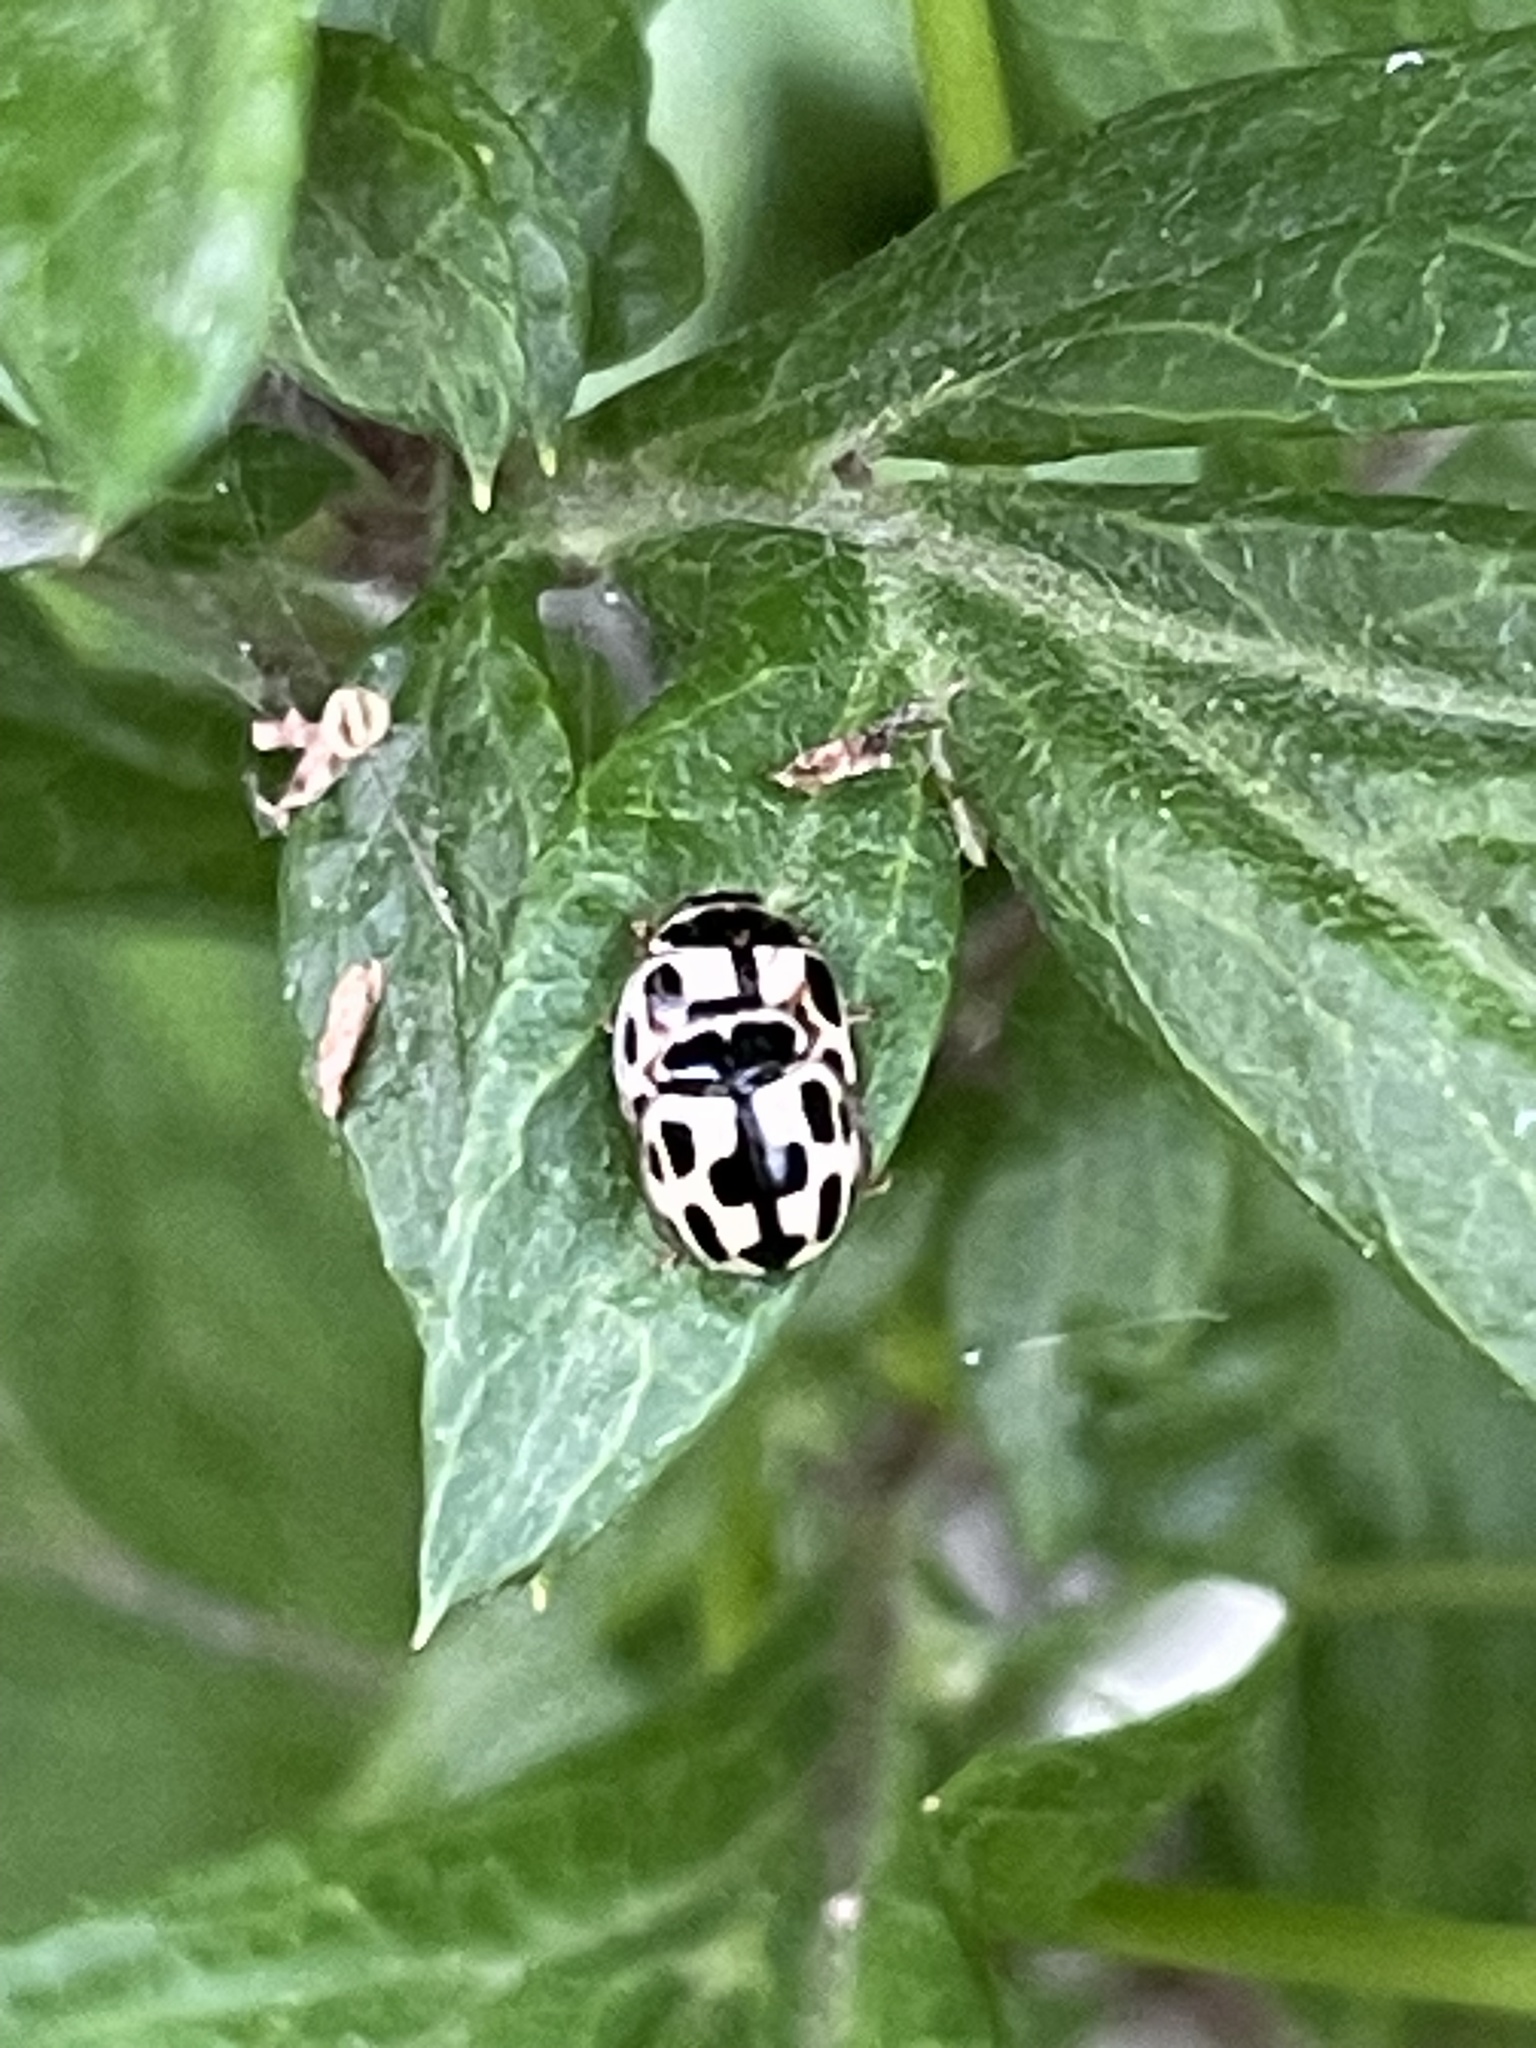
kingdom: Animalia
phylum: Arthropoda
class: Insecta
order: Coleoptera
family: Coccinellidae
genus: Propylaea
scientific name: Propylaea quatuordecimpunctata
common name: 14-spotted ladybird beetle
